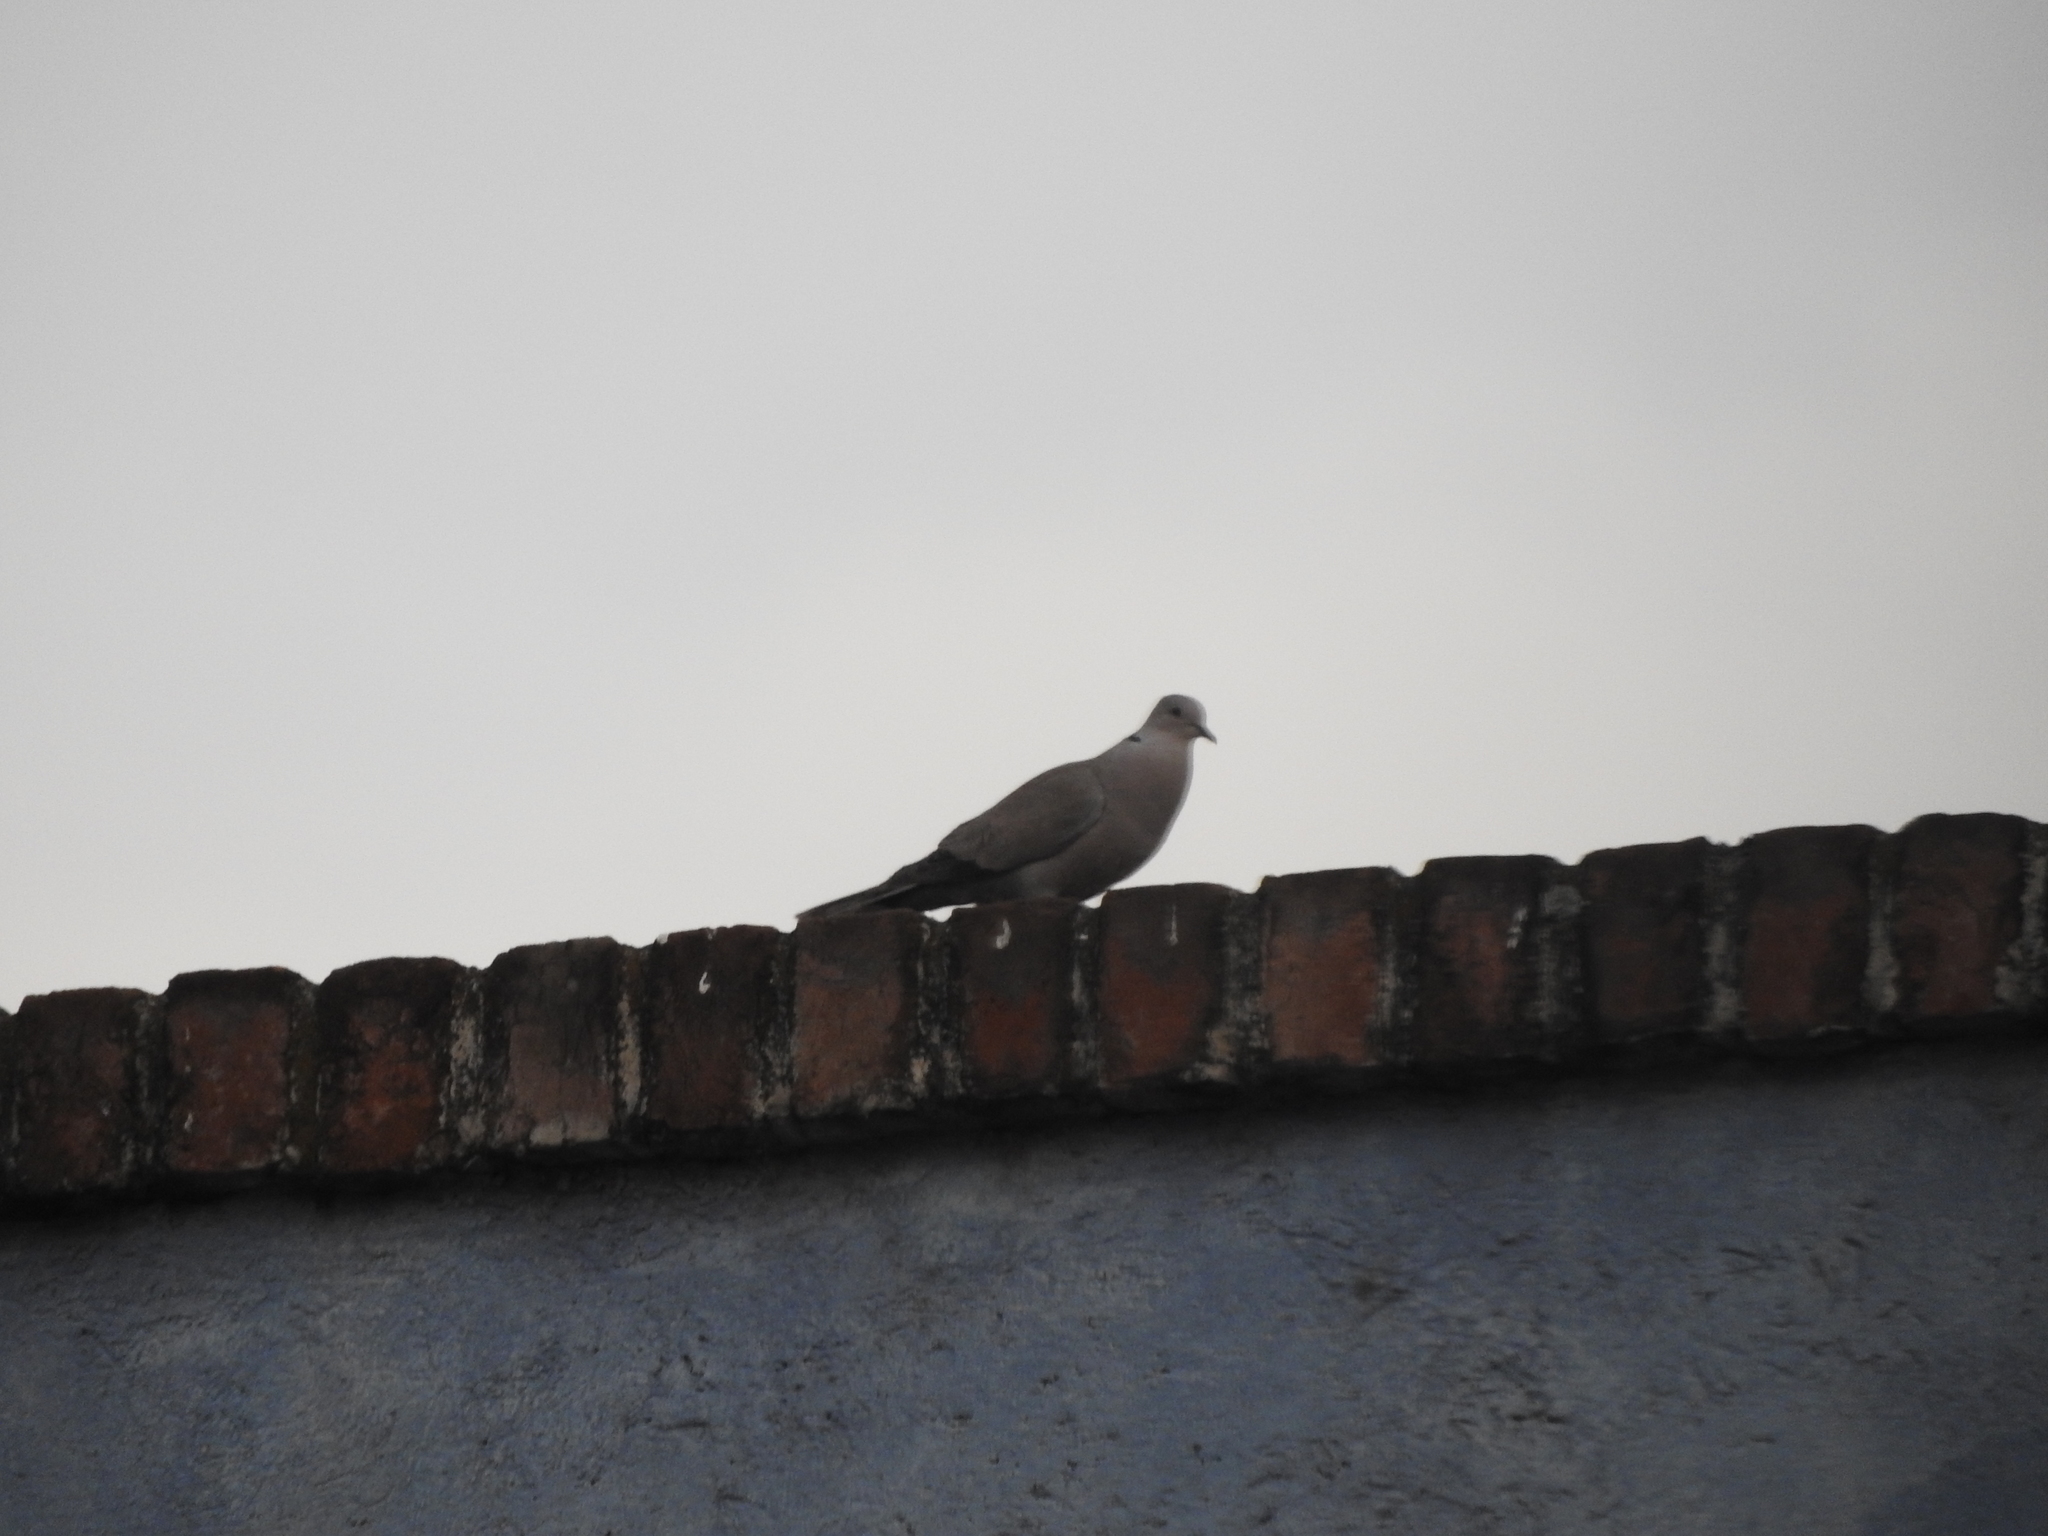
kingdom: Animalia
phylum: Chordata
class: Aves
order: Columbiformes
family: Columbidae
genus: Streptopelia
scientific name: Streptopelia decaocto
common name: Eurasian collared dove
